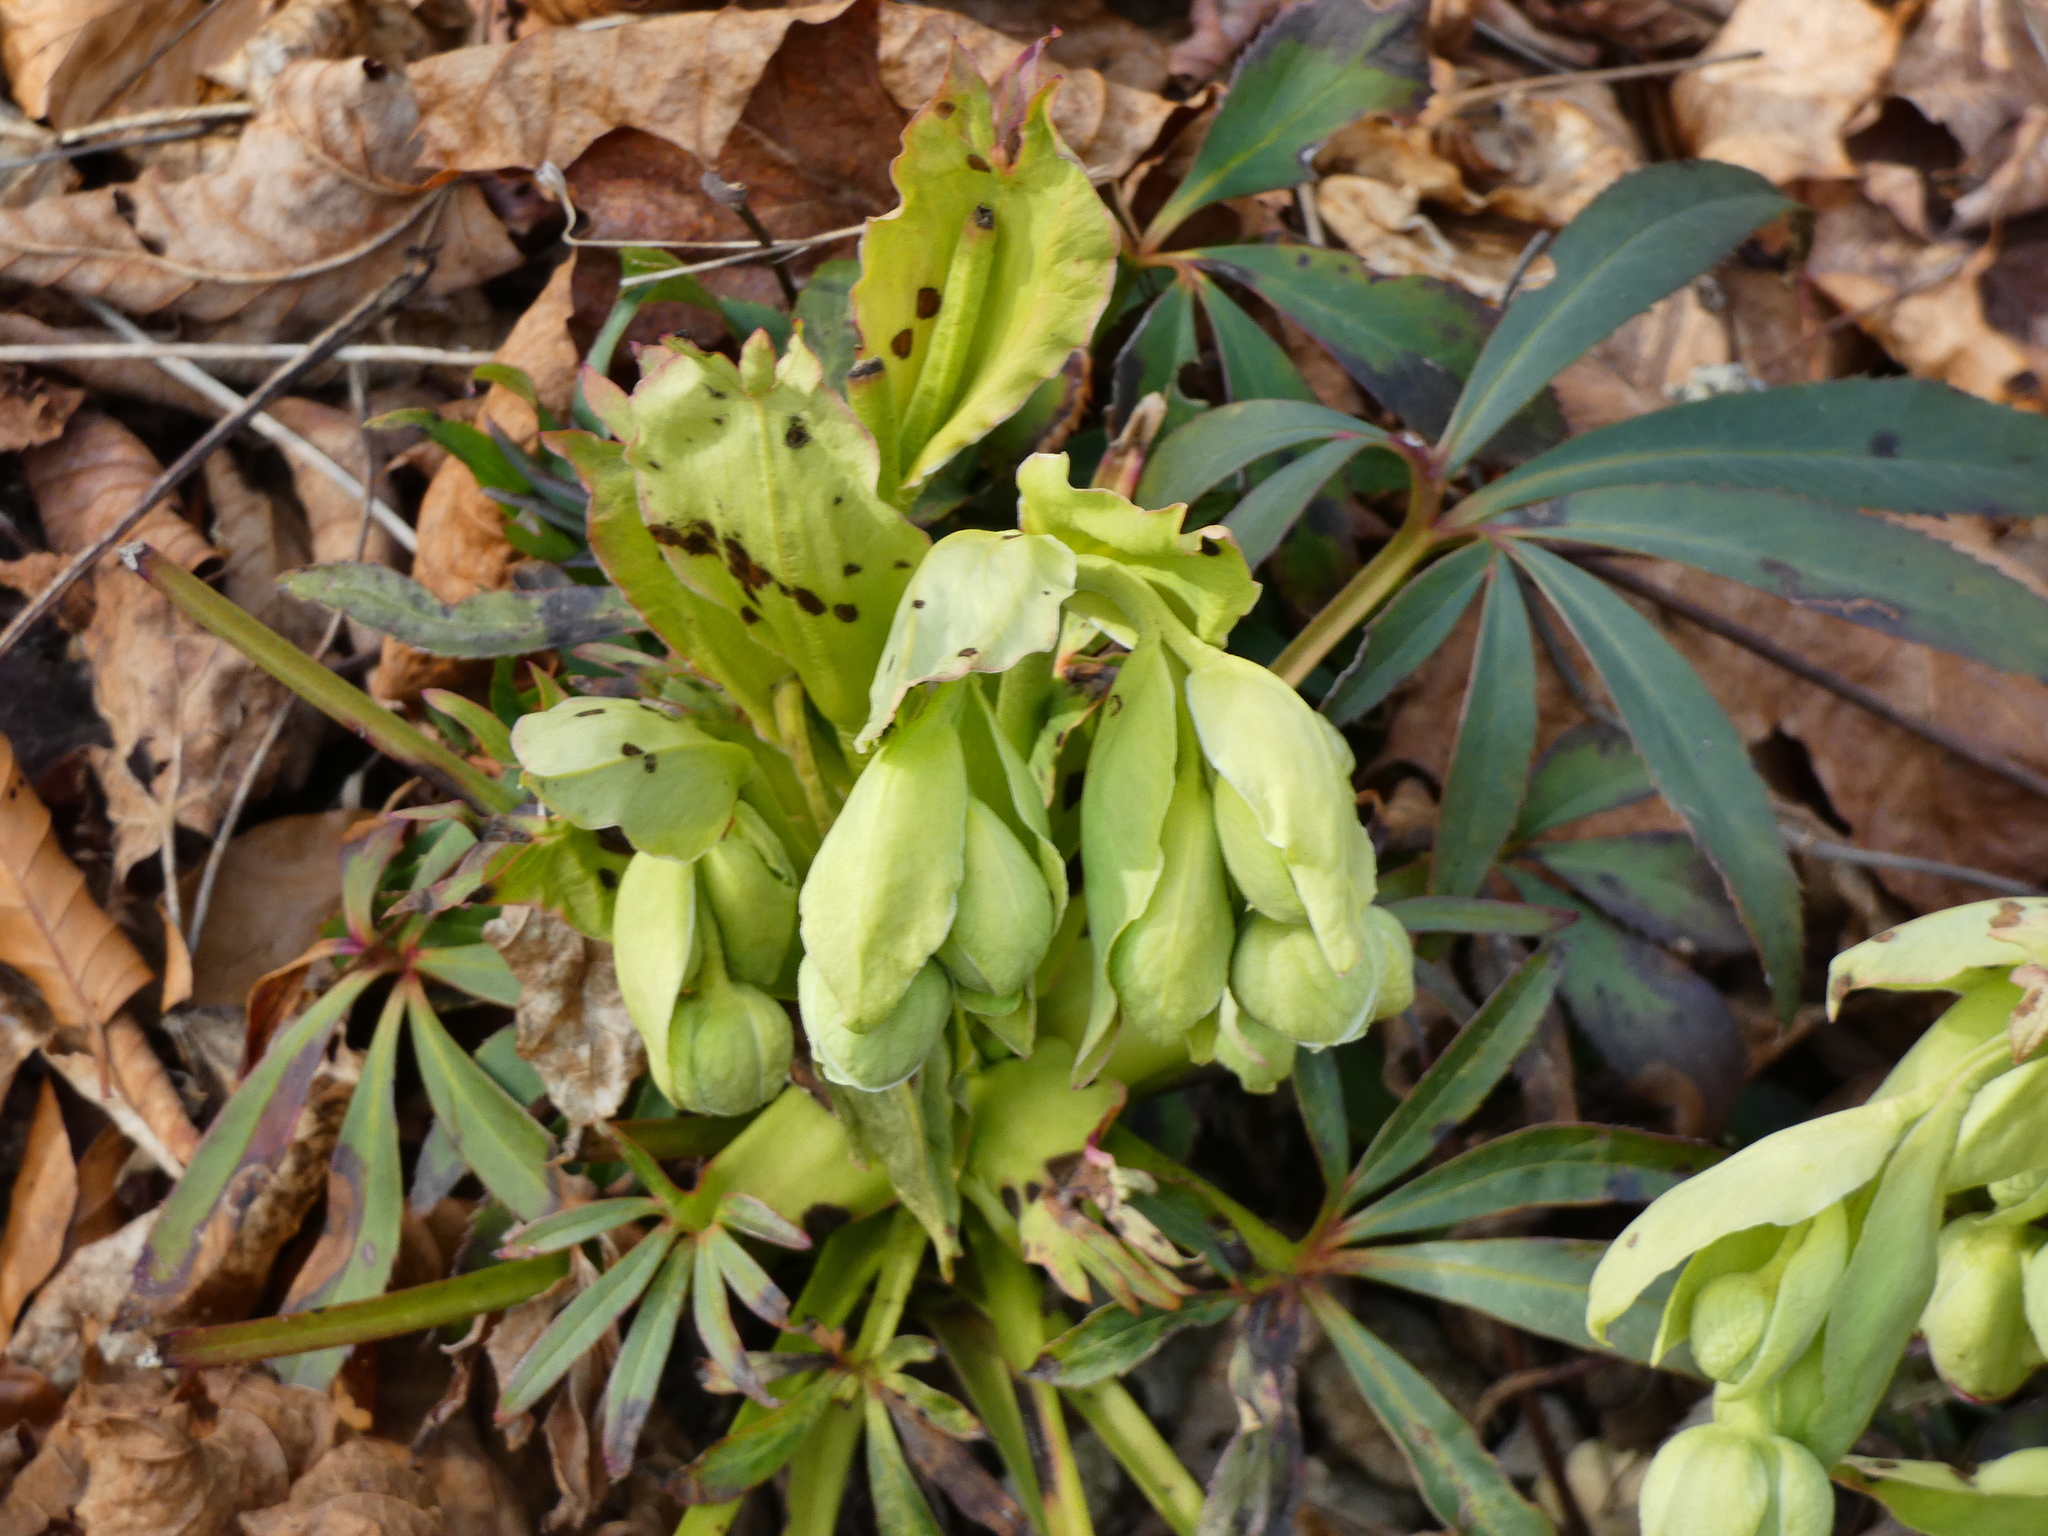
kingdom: Plantae
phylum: Tracheophyta
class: Magnoliopsida
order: Ranunculales
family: Ranunculaceae
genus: Helleborus
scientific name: Helleborus foetidus
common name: Stinking hellebore
